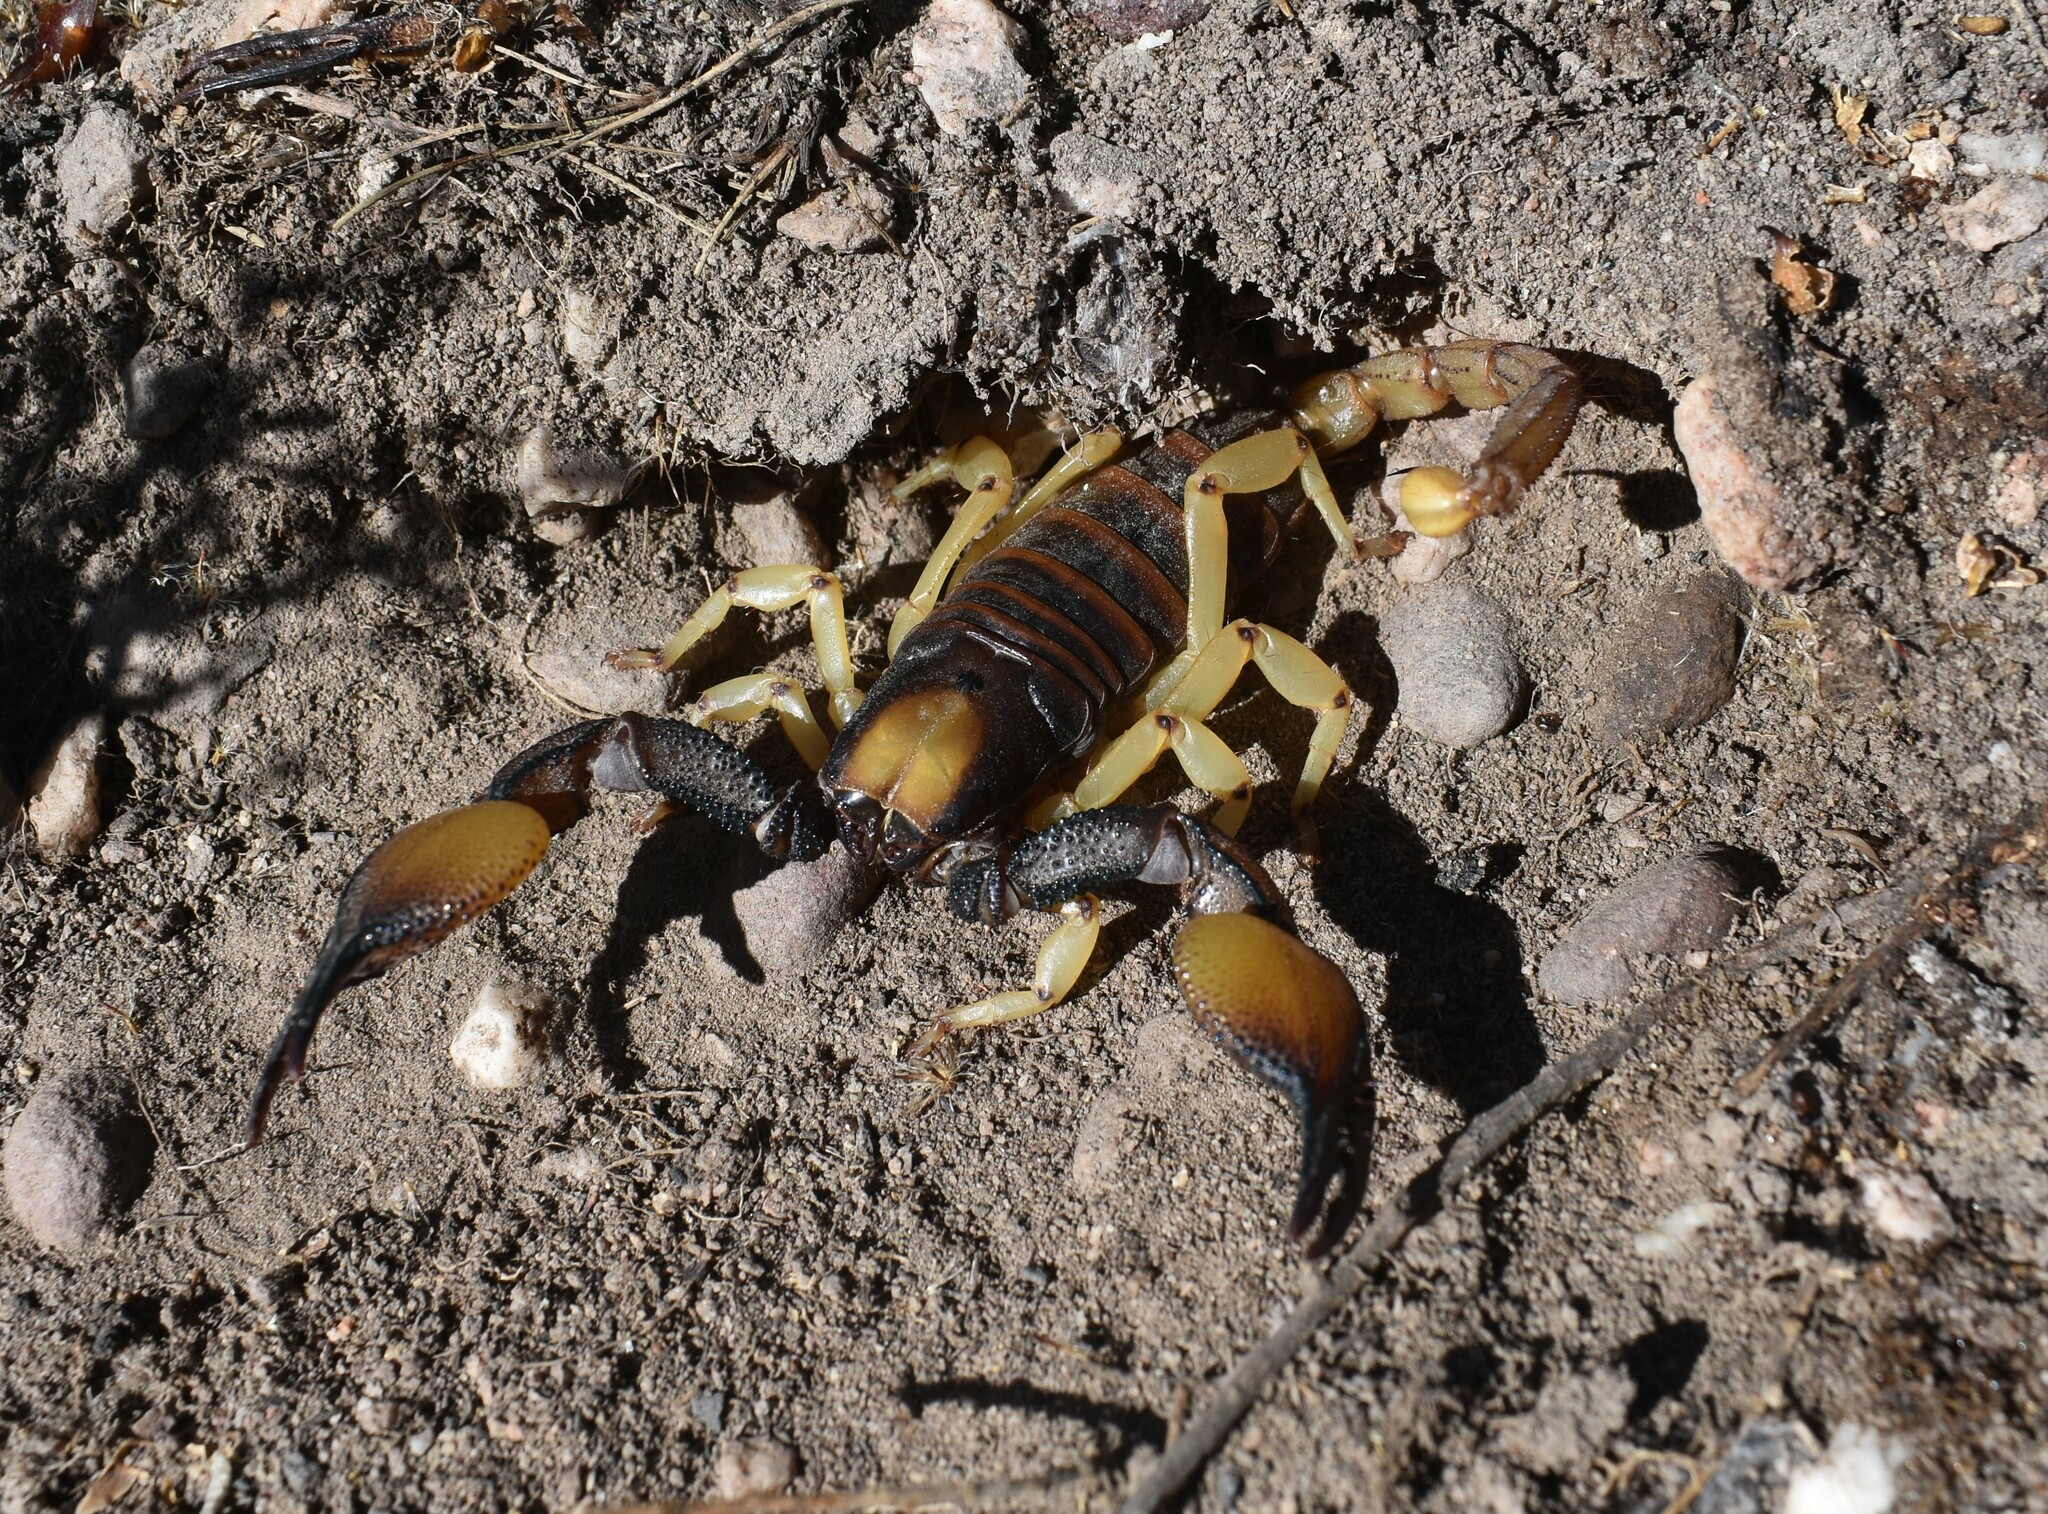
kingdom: Animalia
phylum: Arthropoda
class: Arachnida
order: Scorpiones
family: Scorpionidae
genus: Opistophthalmus
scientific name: Opistophthalmus karrooensis
